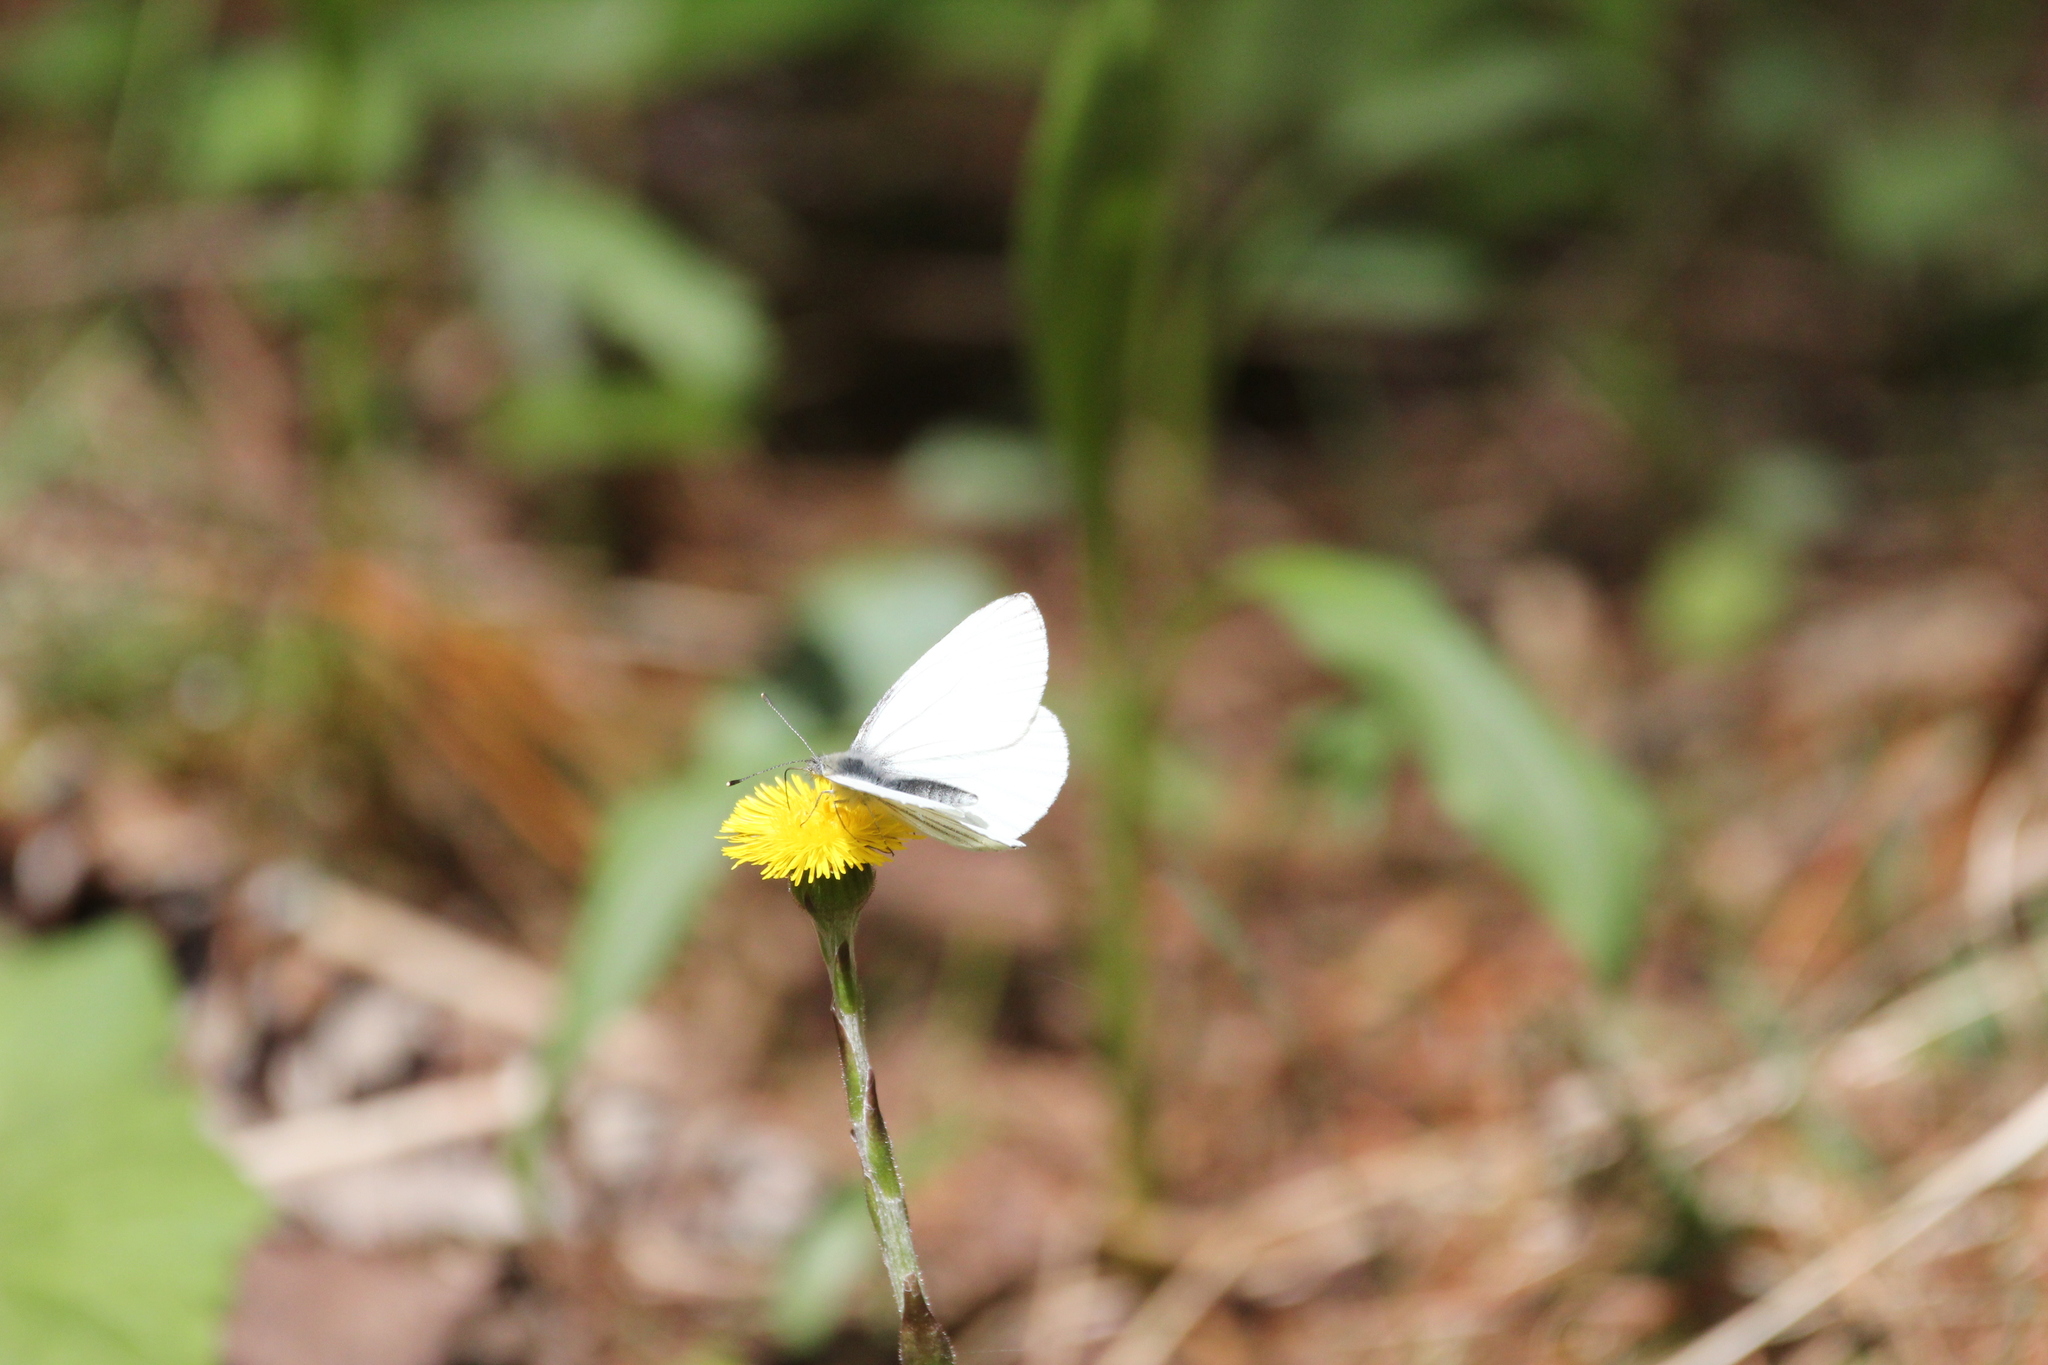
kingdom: Animalia
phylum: Arthropoda
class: Insecta
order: Lepidoptera
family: Pieridae
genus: Pieris
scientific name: Pieris oleracea
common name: Mustard white
